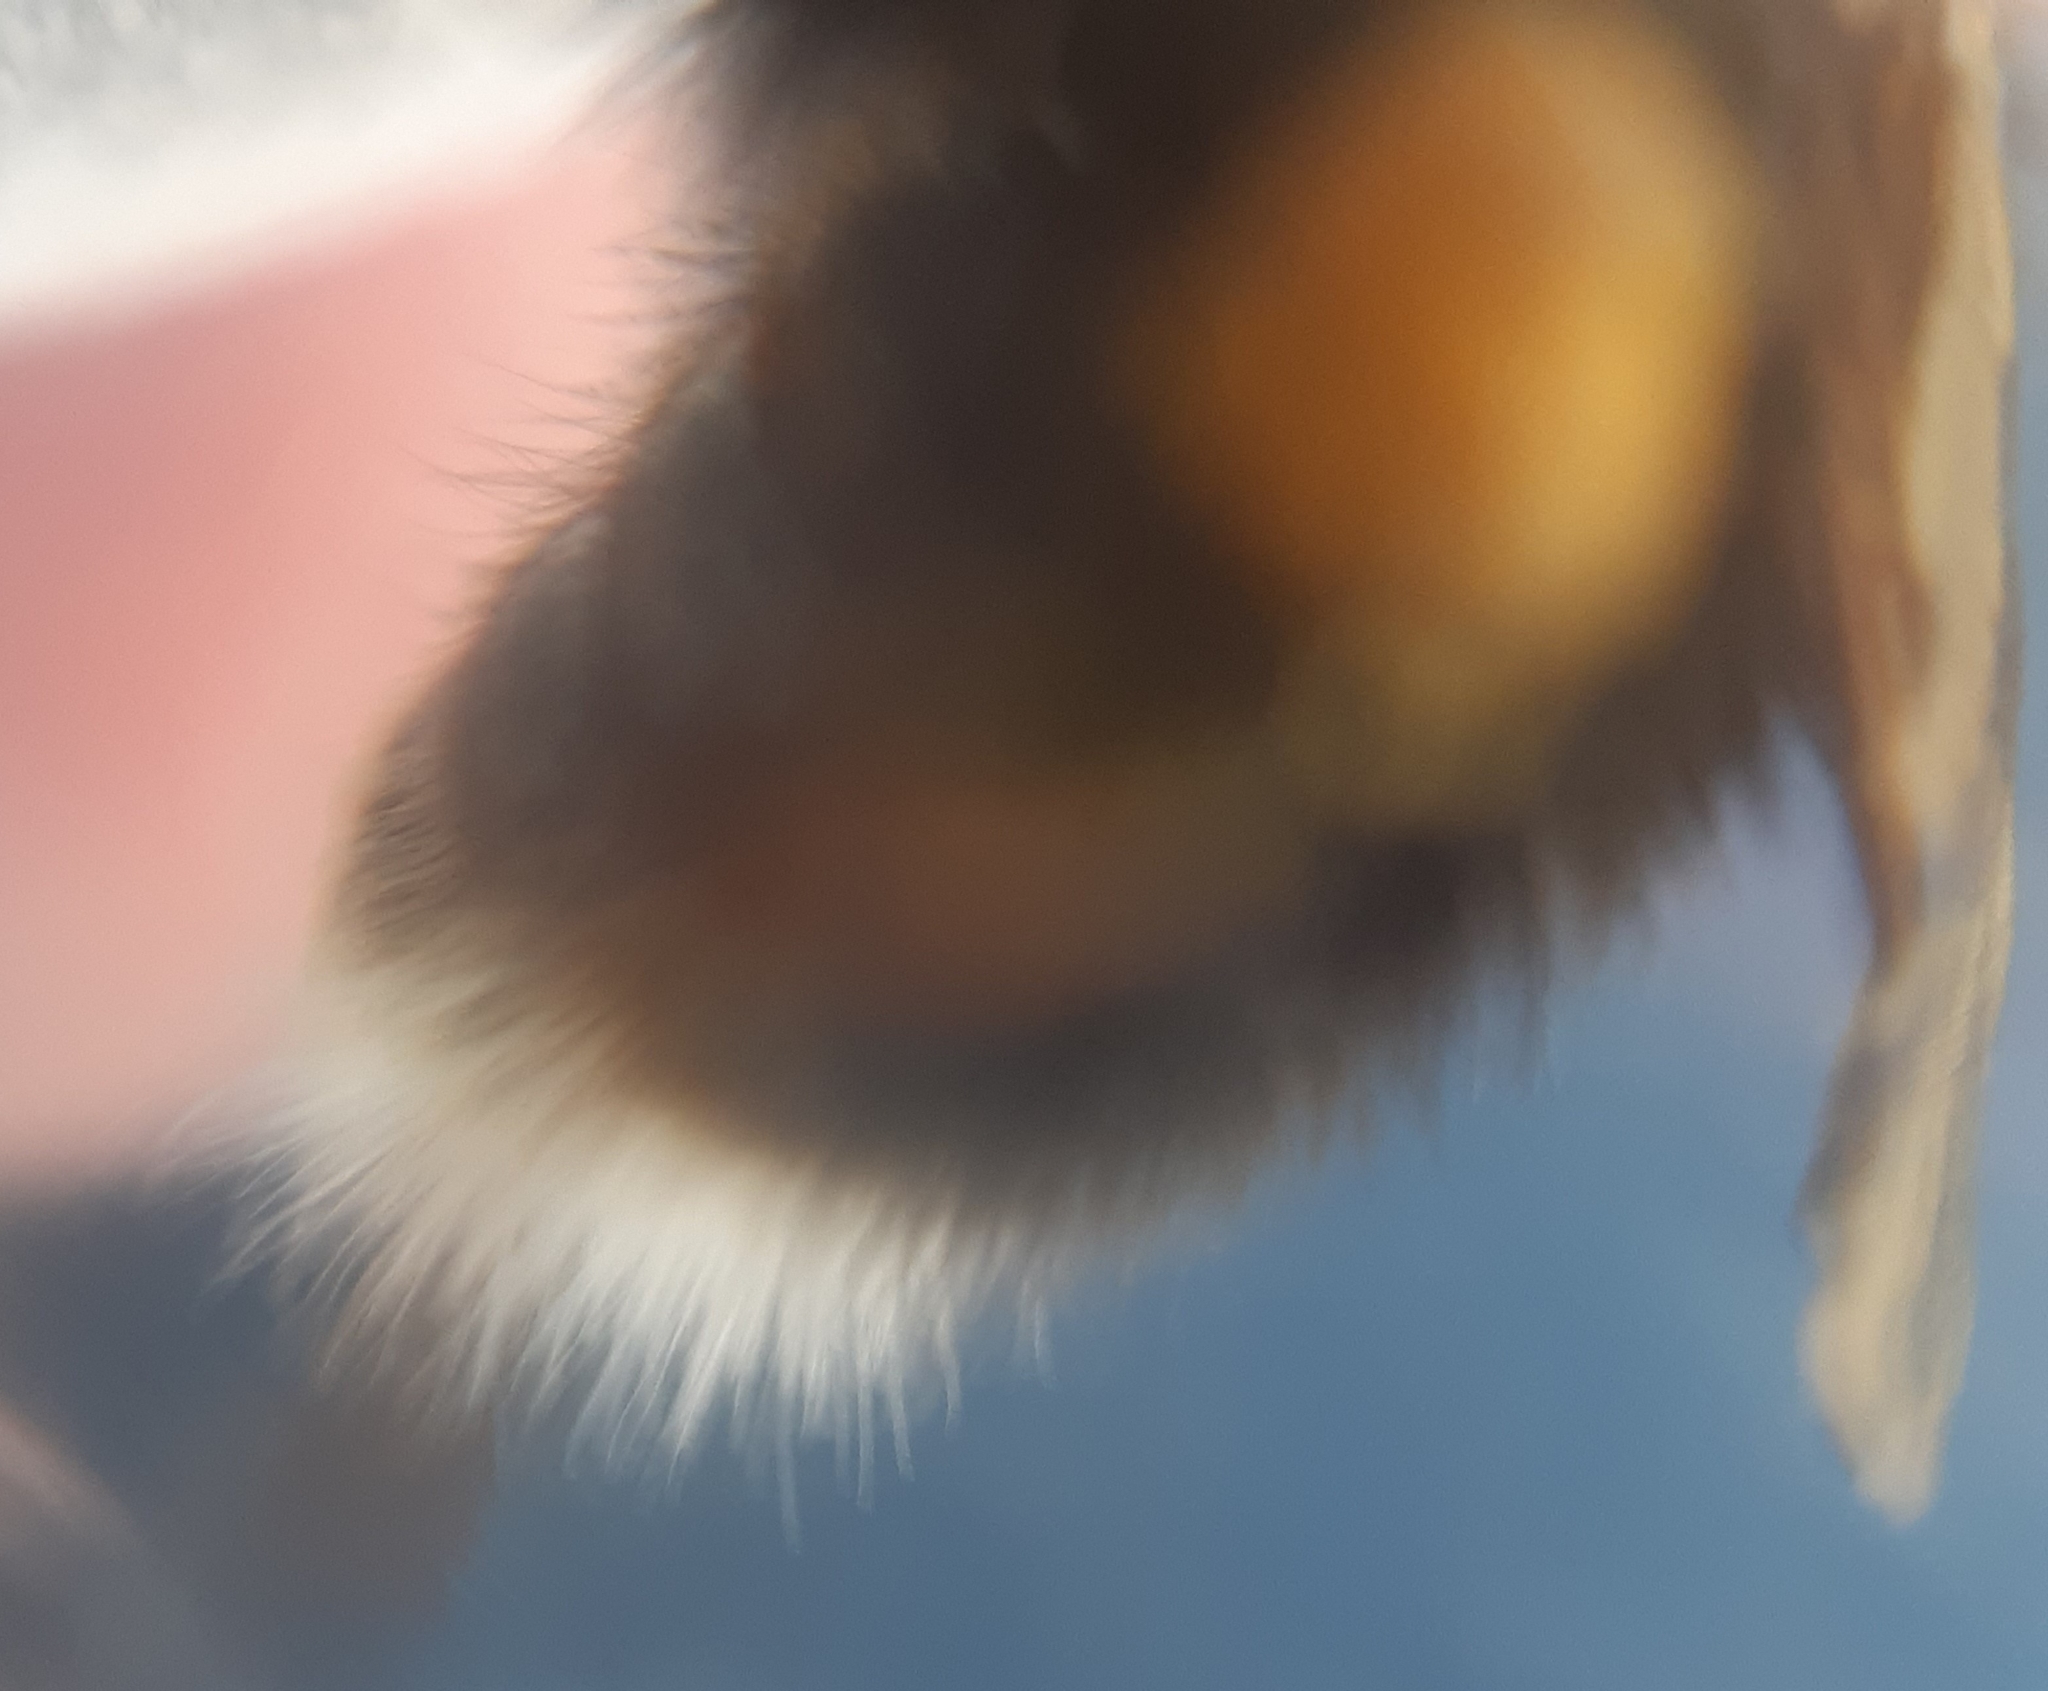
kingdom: Animalia
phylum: Arthropoda
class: Insecta
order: Hymenoptera
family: Apidae
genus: Bombus
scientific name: Bombus hypnorum
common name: New garden bumblebee
